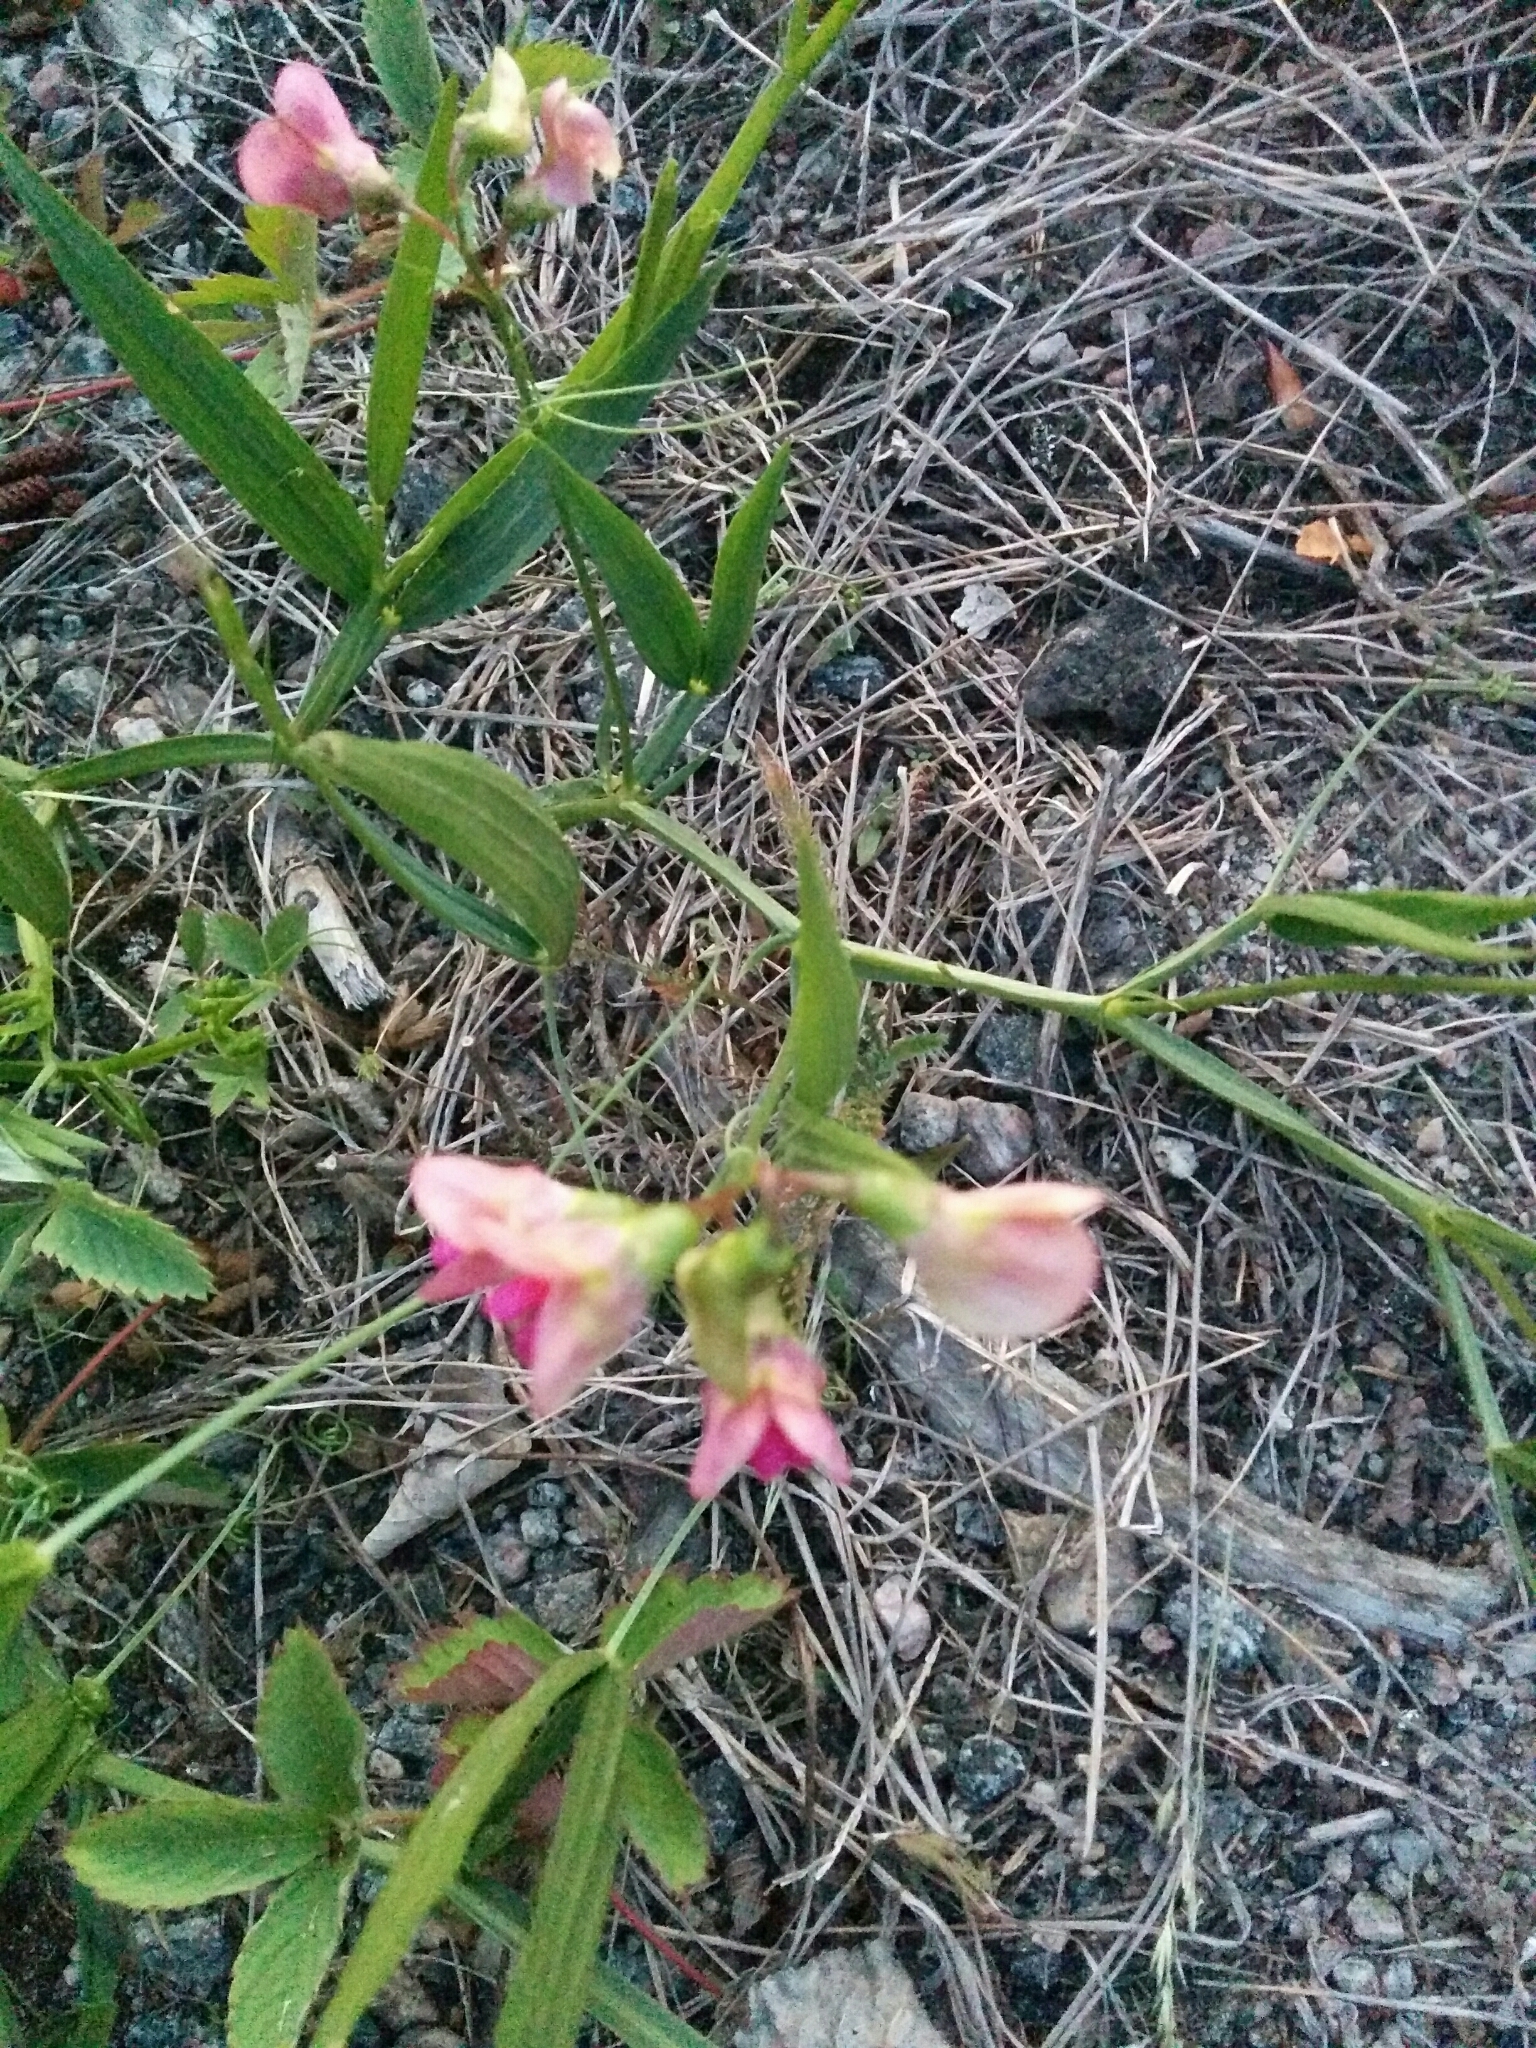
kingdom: Plantae
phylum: Tracheophyta
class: Magnoliopsida
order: Fabales
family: Fabaceae
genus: Lathyrus
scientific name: Lathyrus sylvestris
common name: Flat pea
